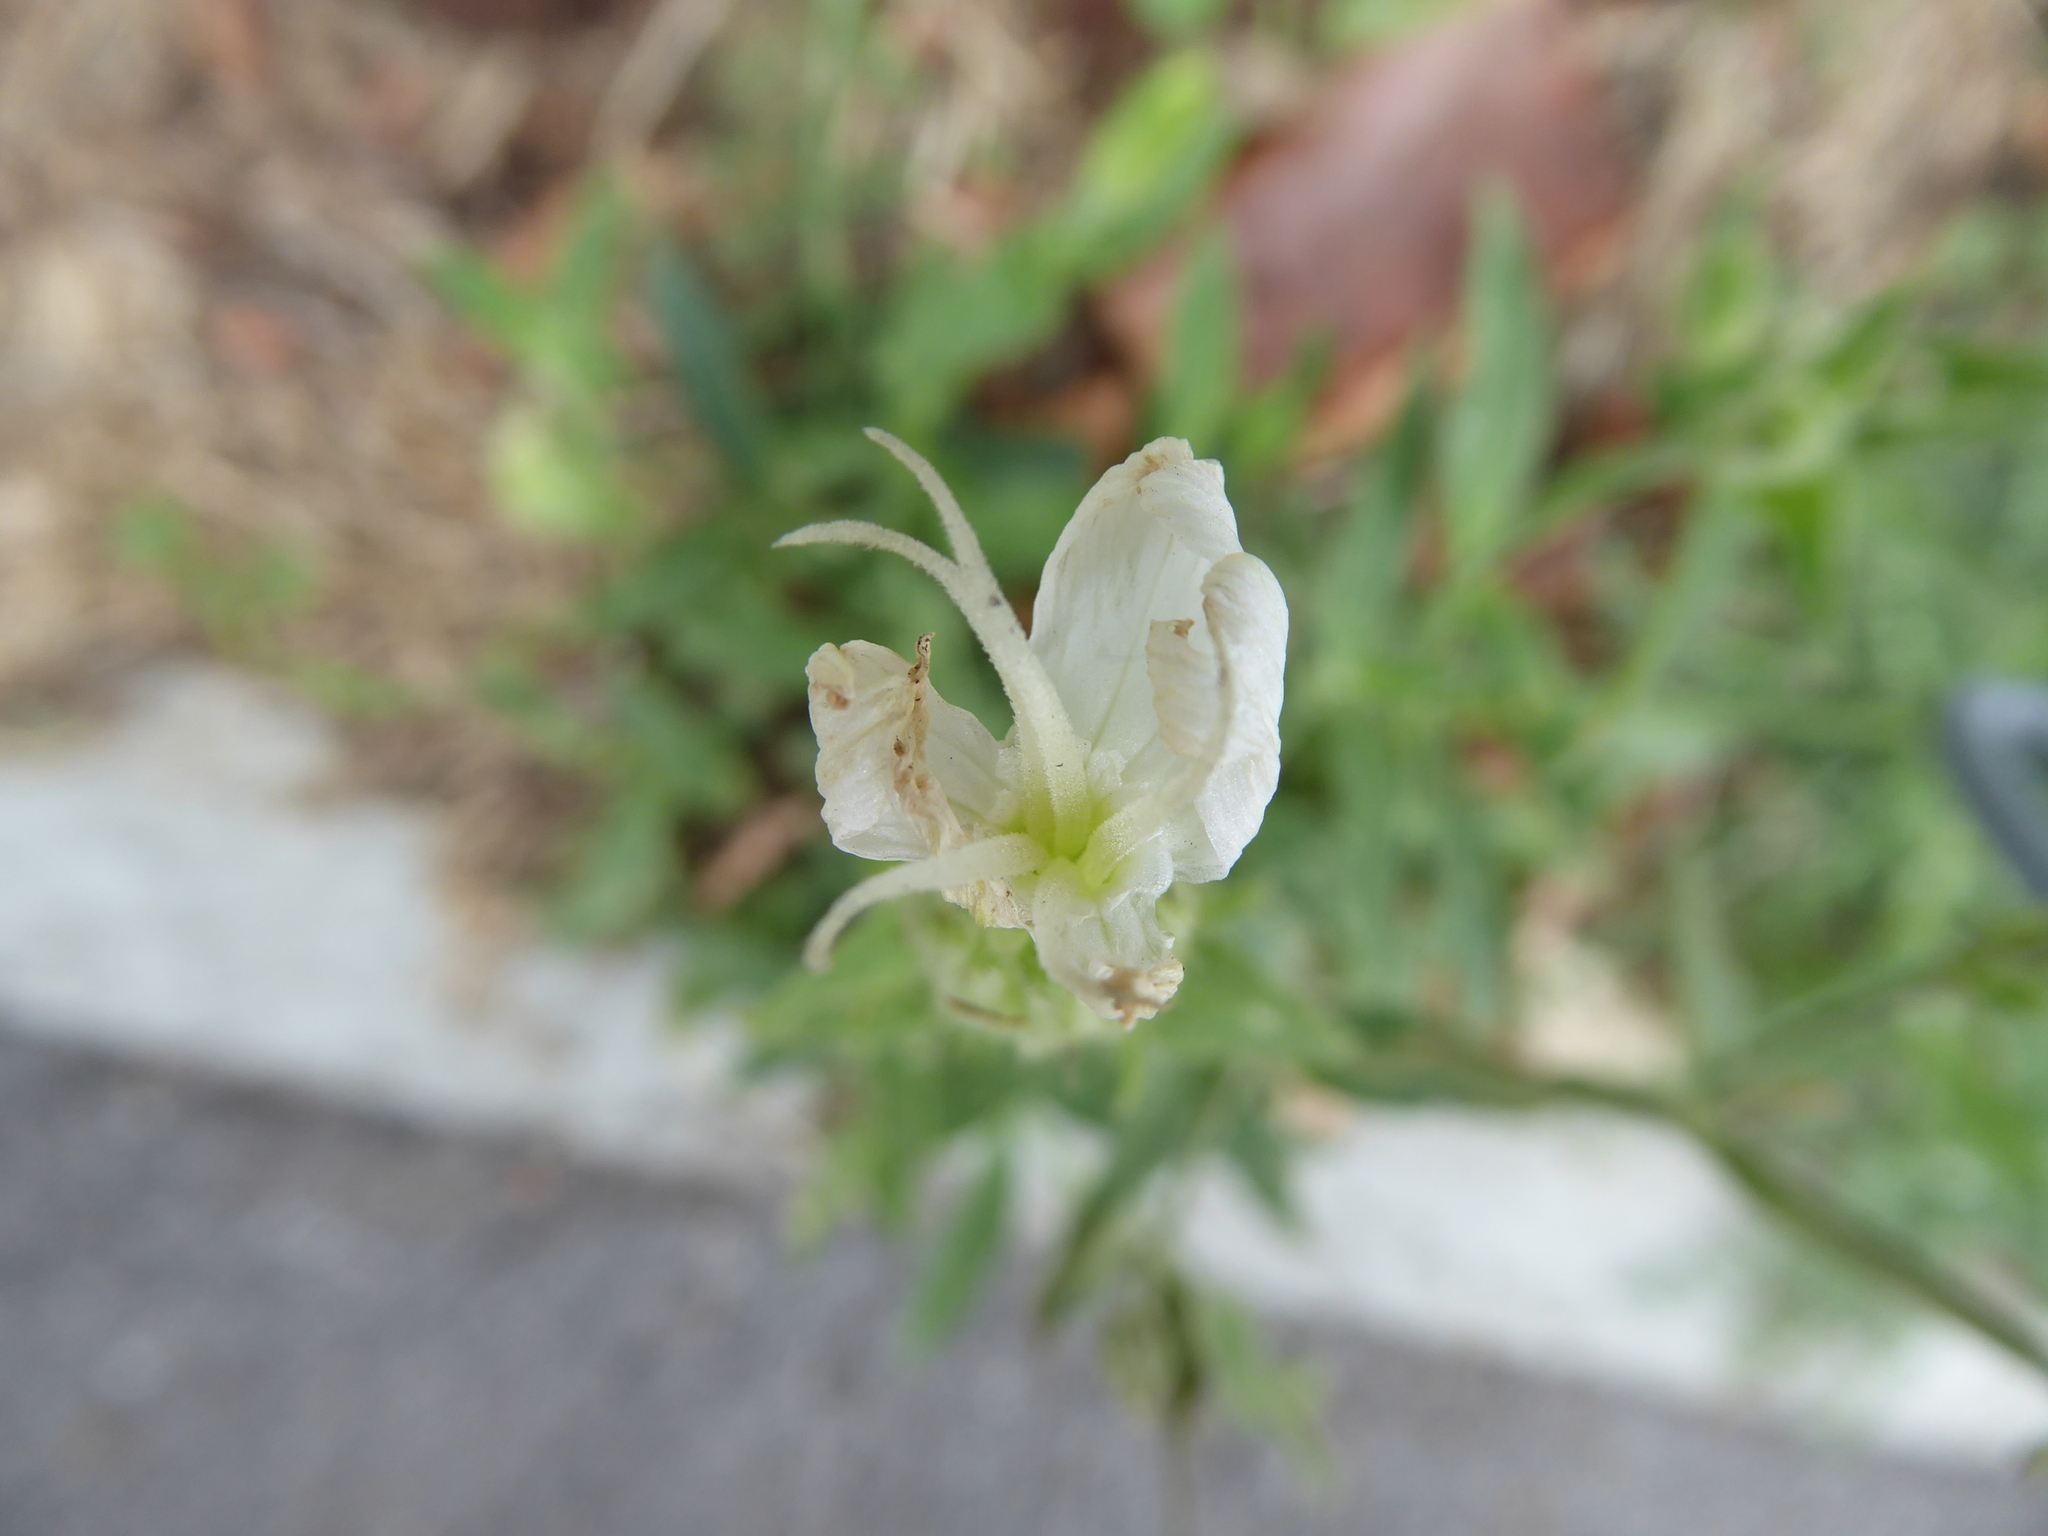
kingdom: Plantae
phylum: Tracheophyta
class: Magnoliopsida
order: Caryophyllales
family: Caryophyllaceae
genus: Silene
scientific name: Silene latifolia
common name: White campion
